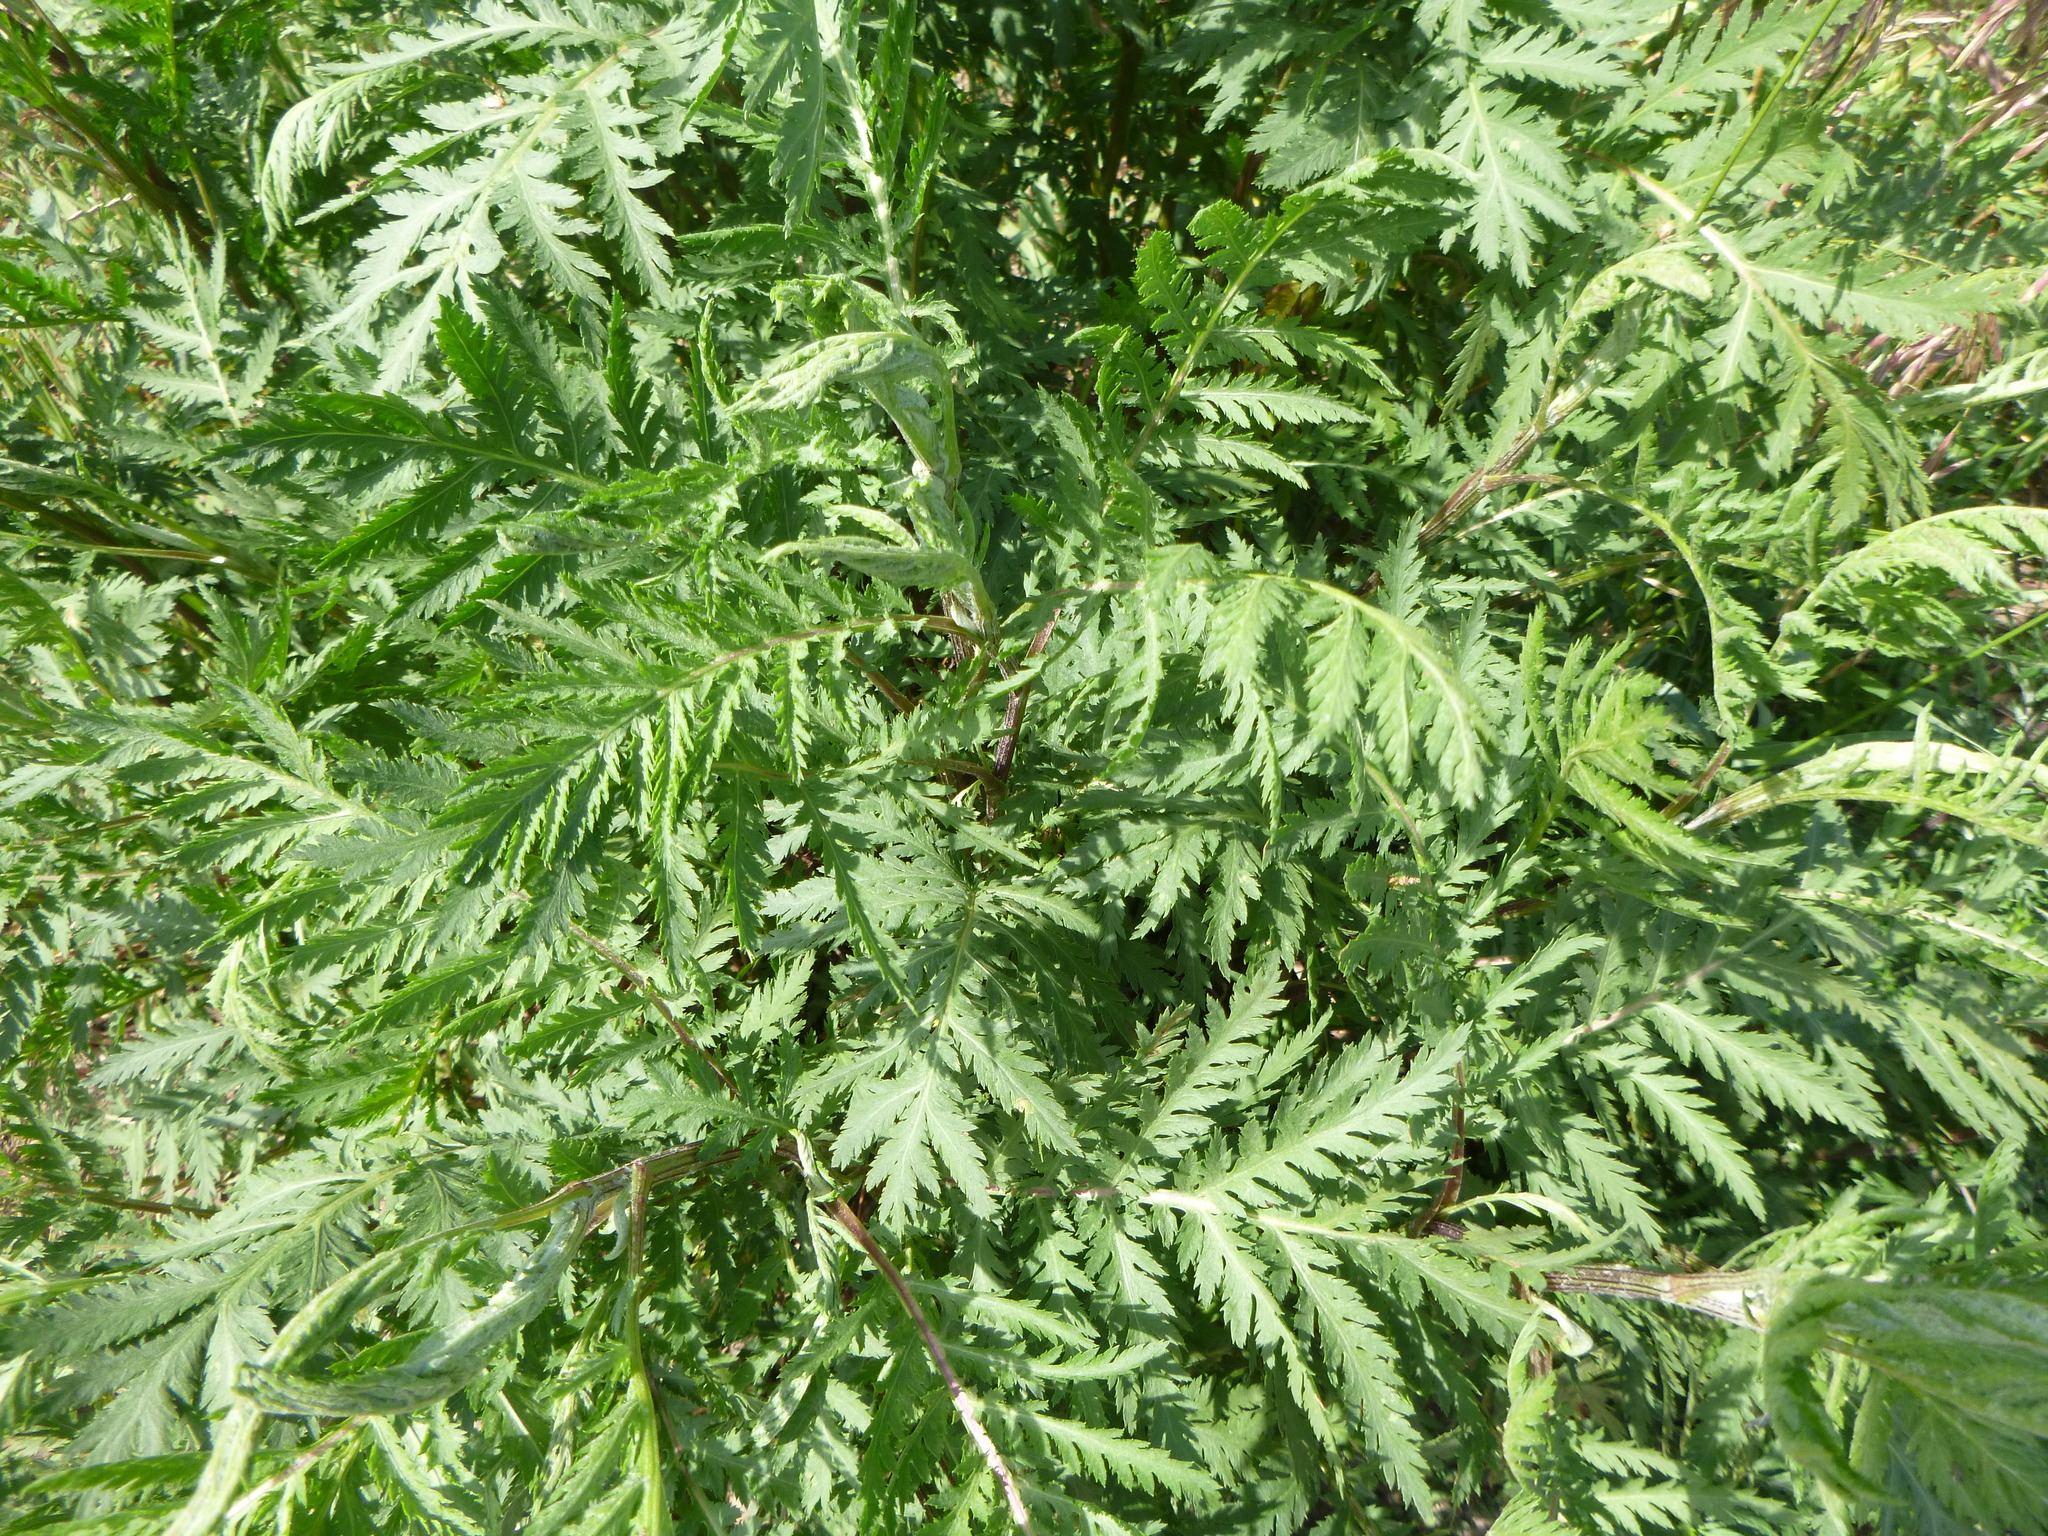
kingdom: Plantae
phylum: Tracheophyta
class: Magnoliopsida
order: Asterales
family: Asteraceae
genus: Tanacetum
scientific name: Tanacetum vulgare
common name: Common tansy
